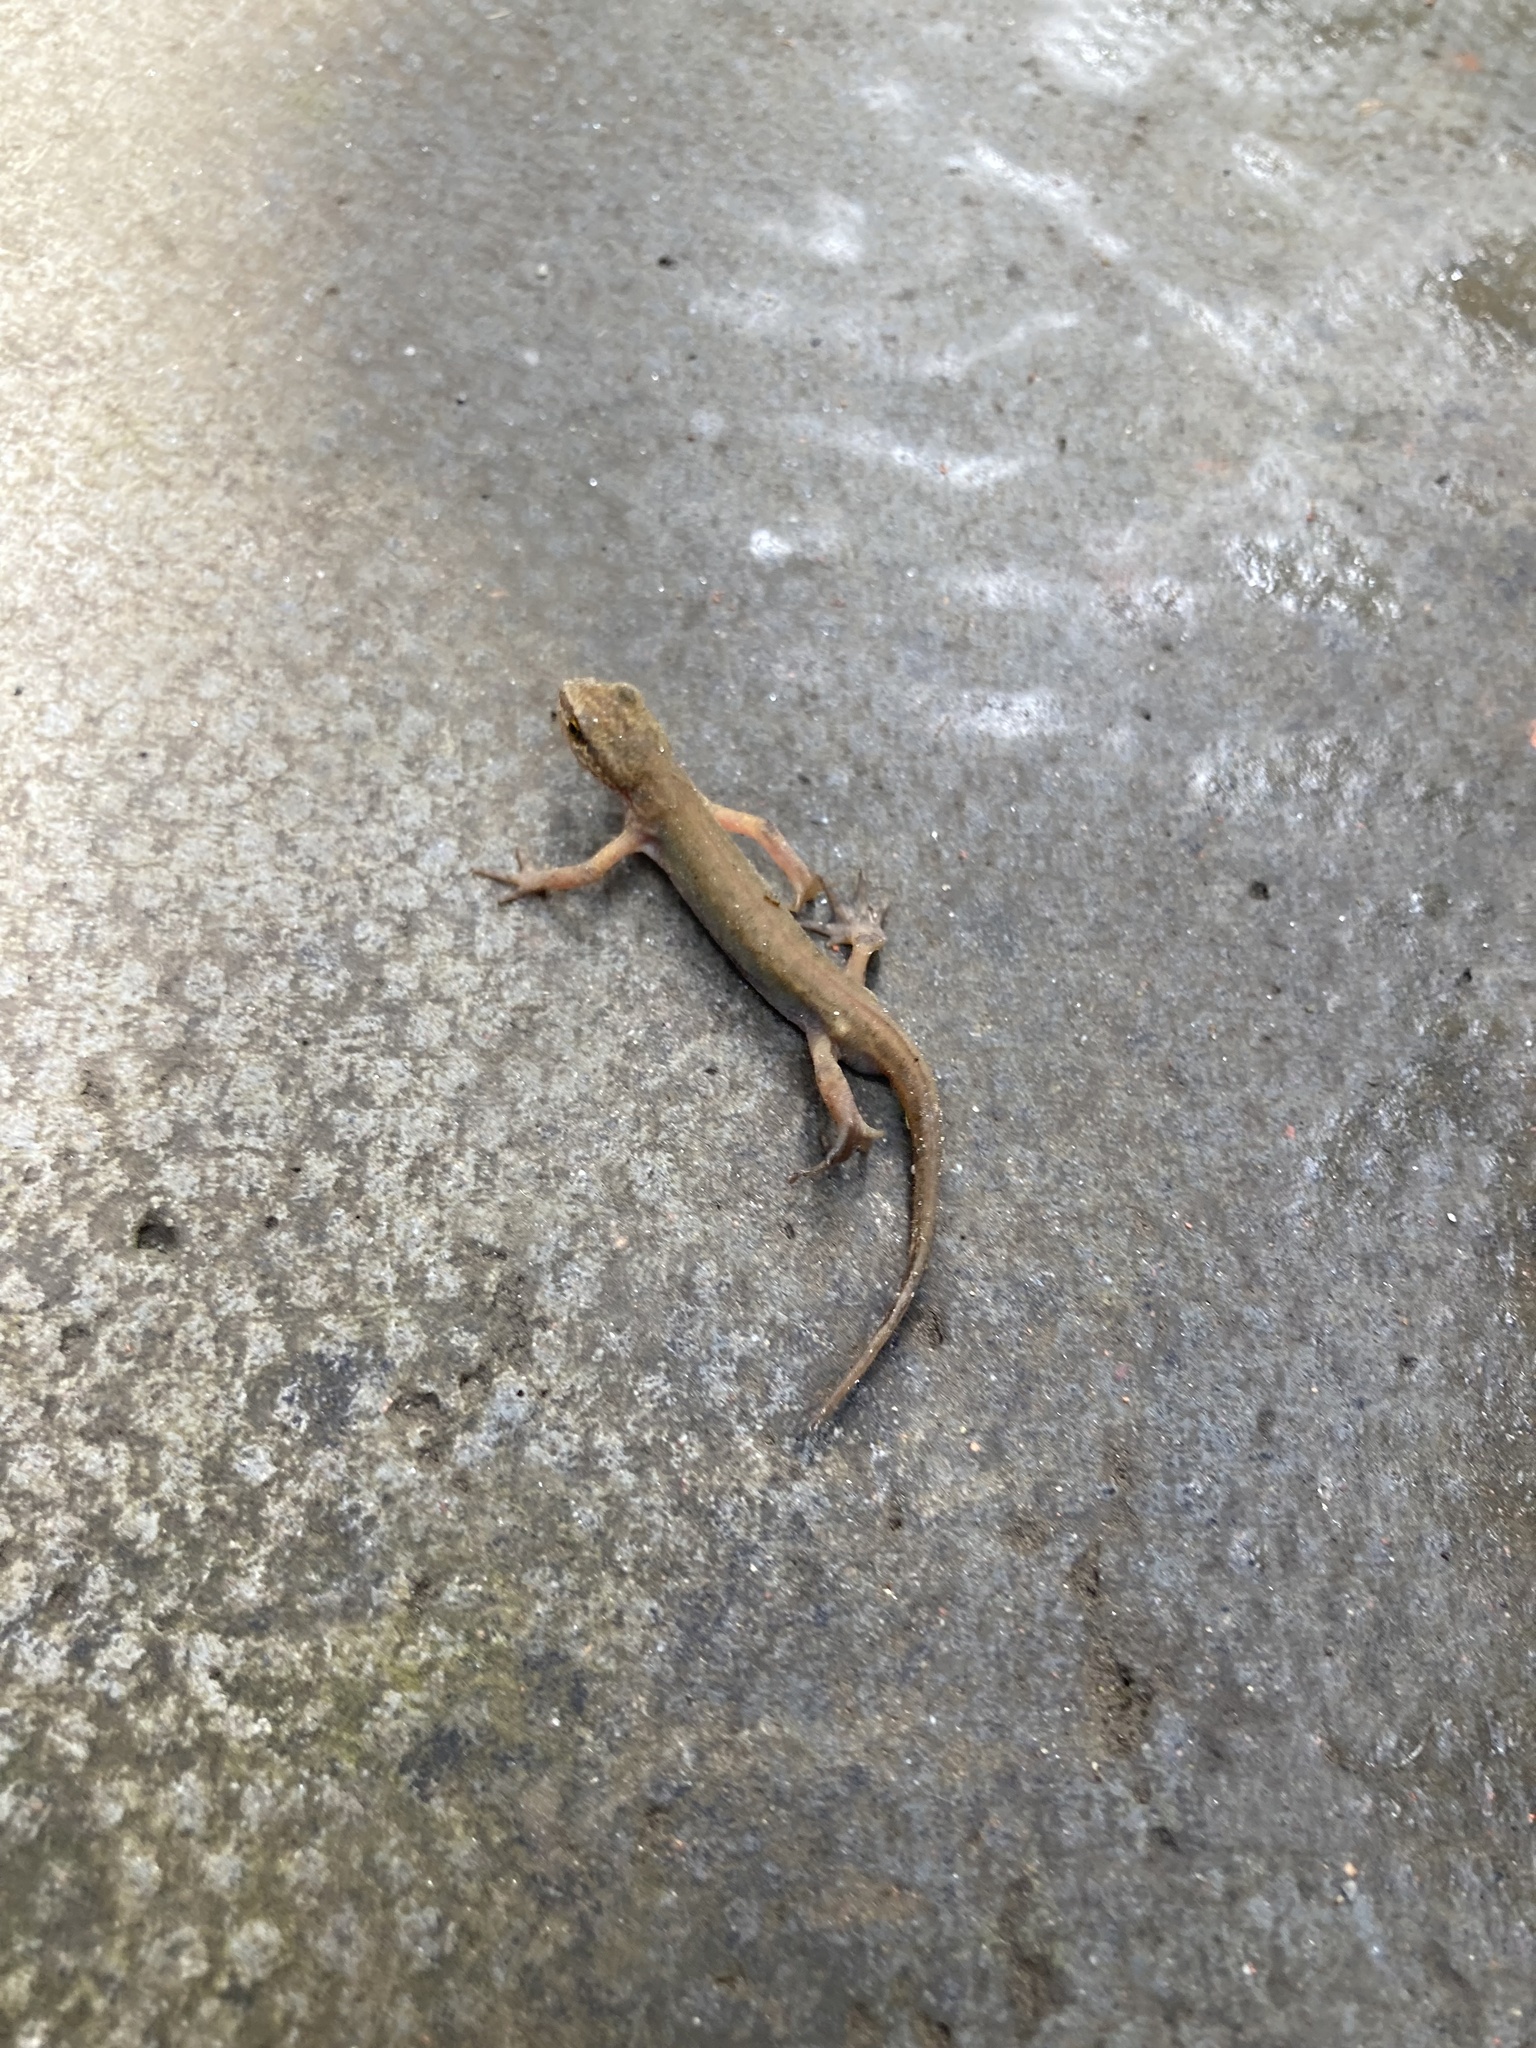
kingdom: Animalia
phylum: Chordata
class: Amphibia
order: Caudata
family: Salamandridae
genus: Lissotriton
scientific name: Lissotriton helveticus
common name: Palmate newt
